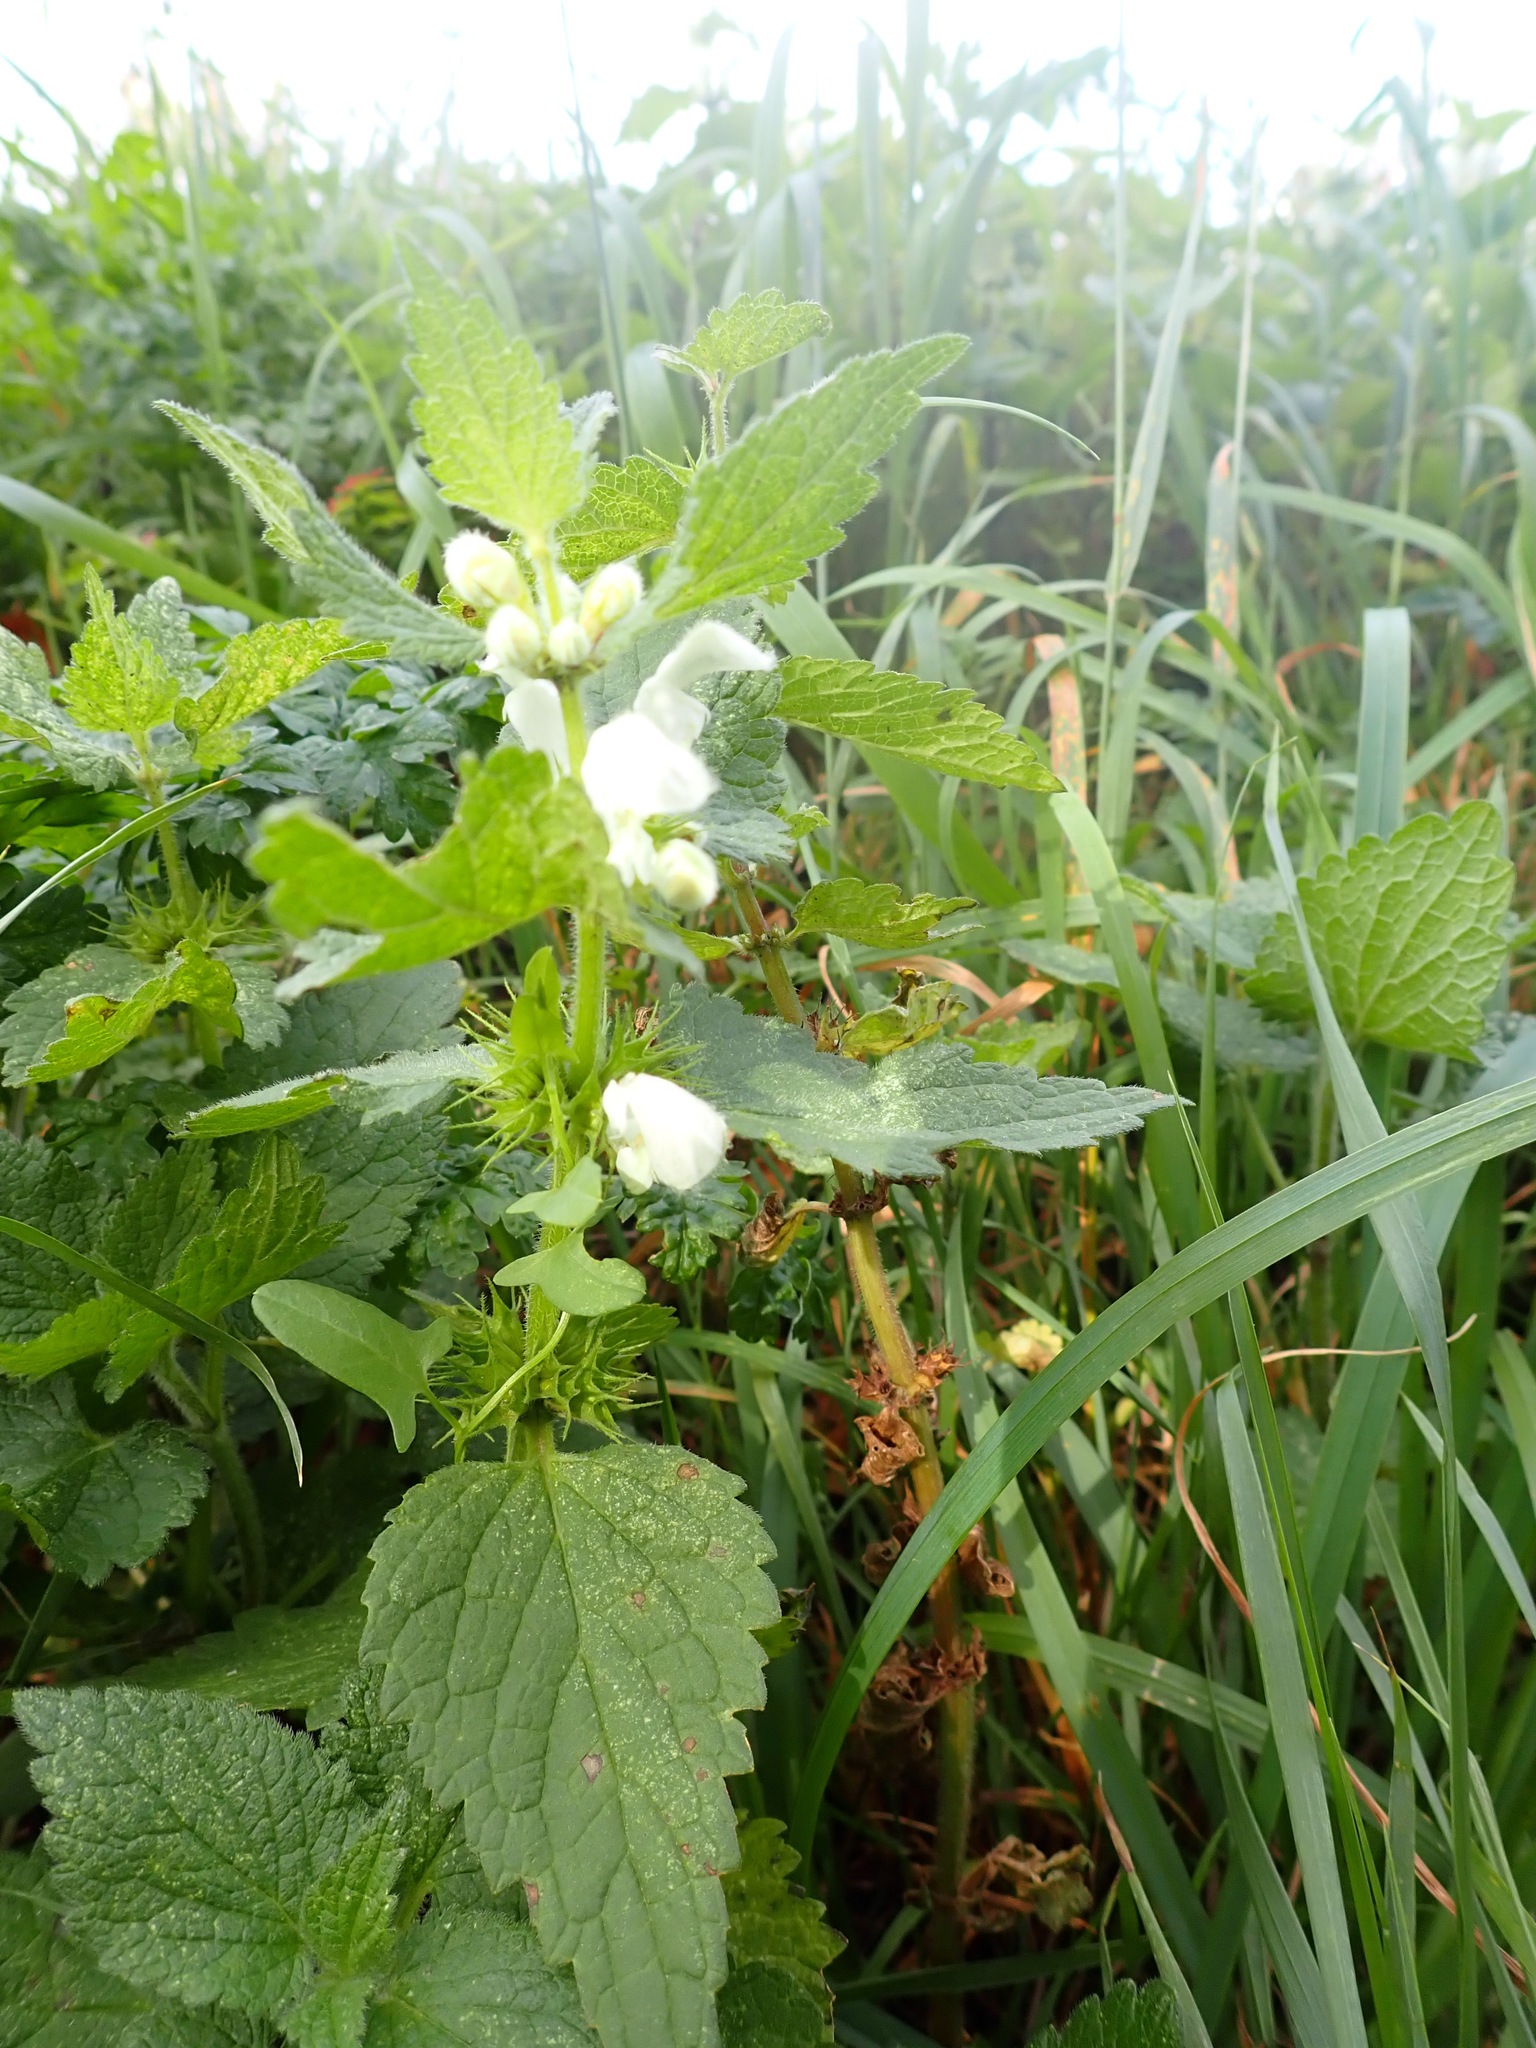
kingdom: Plantae
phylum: Tracheophyta
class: Magnoliopsida
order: Lamiales
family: Lamiaceae
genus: Lamium
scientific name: Lamium album
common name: White dead-nettle
